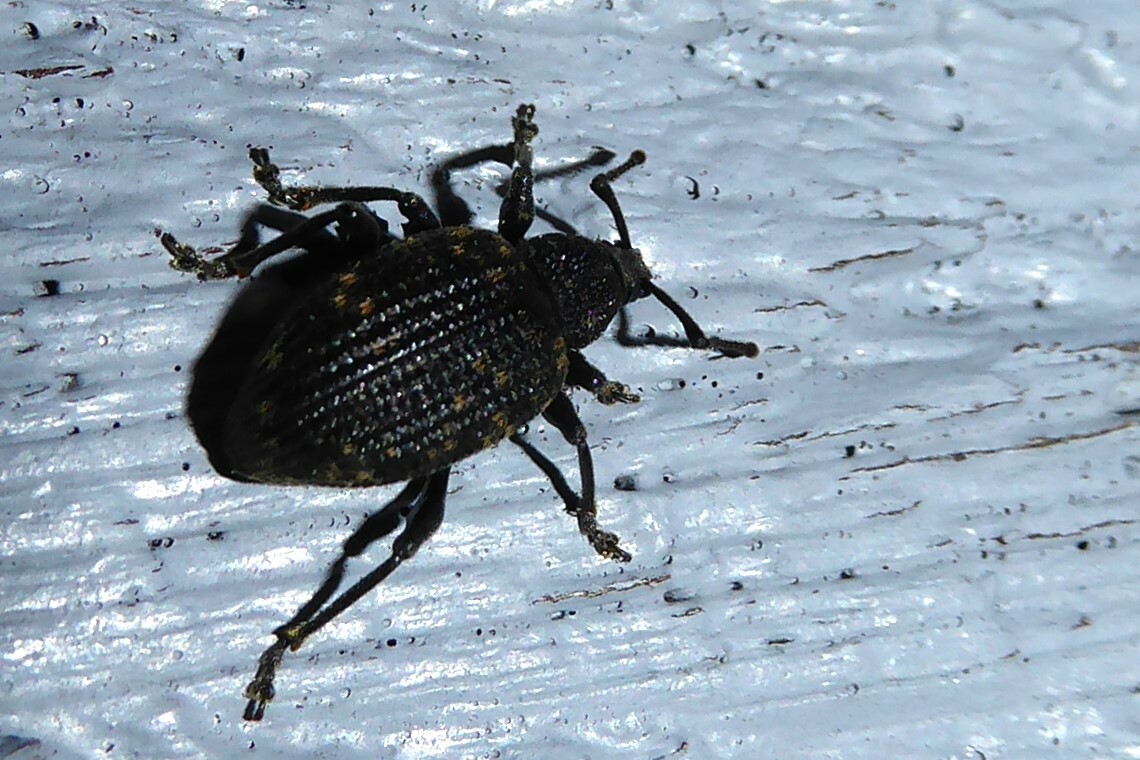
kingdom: Animalia
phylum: Arthropoda
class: Insecta
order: Coleoptera
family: Curculionidae
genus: Otiorhynchus
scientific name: Otiorhynchus sulcatus
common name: Black vine weevil
